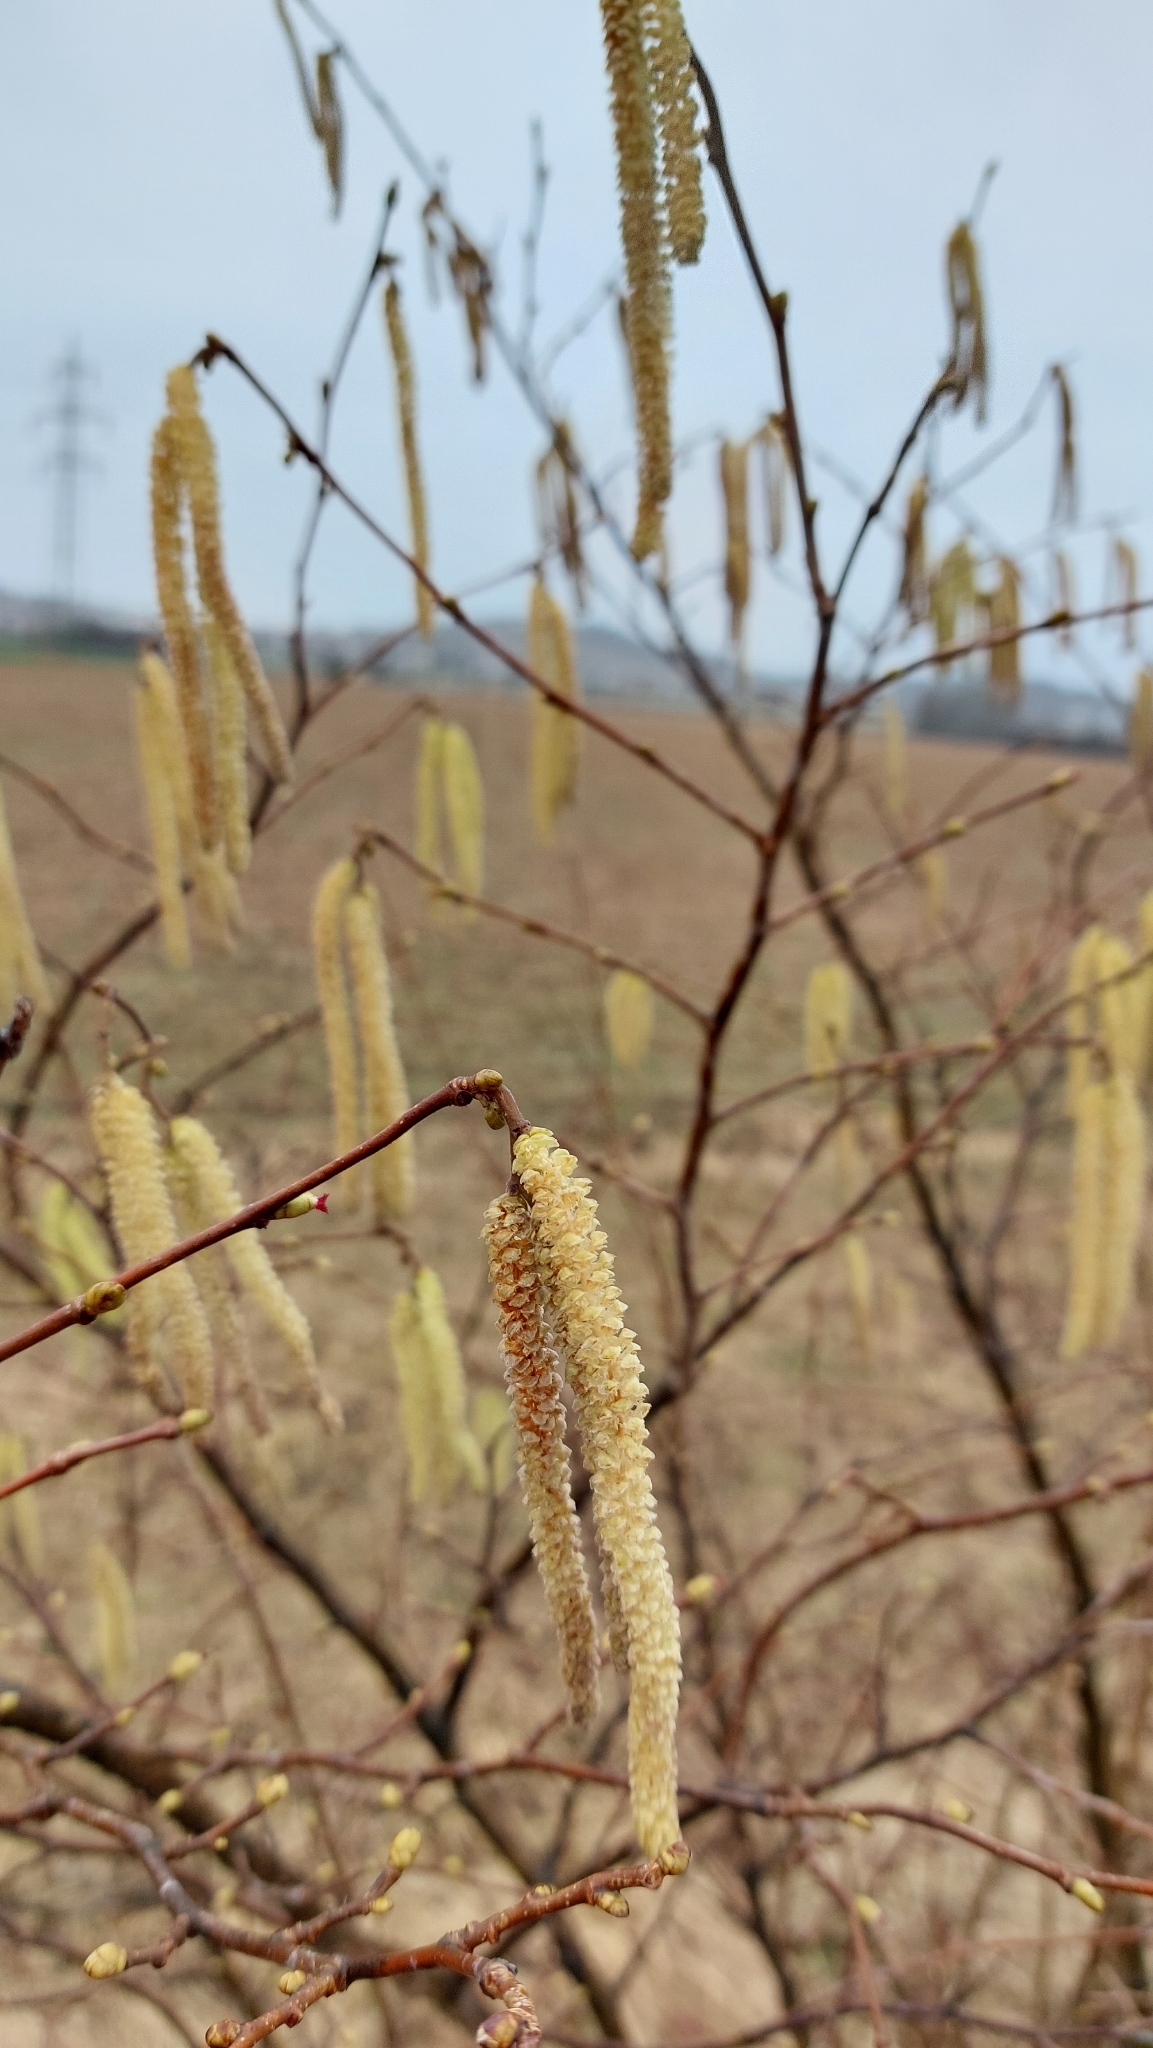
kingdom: Plantae
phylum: Tracheophyta
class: Magnoliopsida
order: Fagales
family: Betulaceae
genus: Corylus
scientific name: Corylus avellana
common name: European hazel
